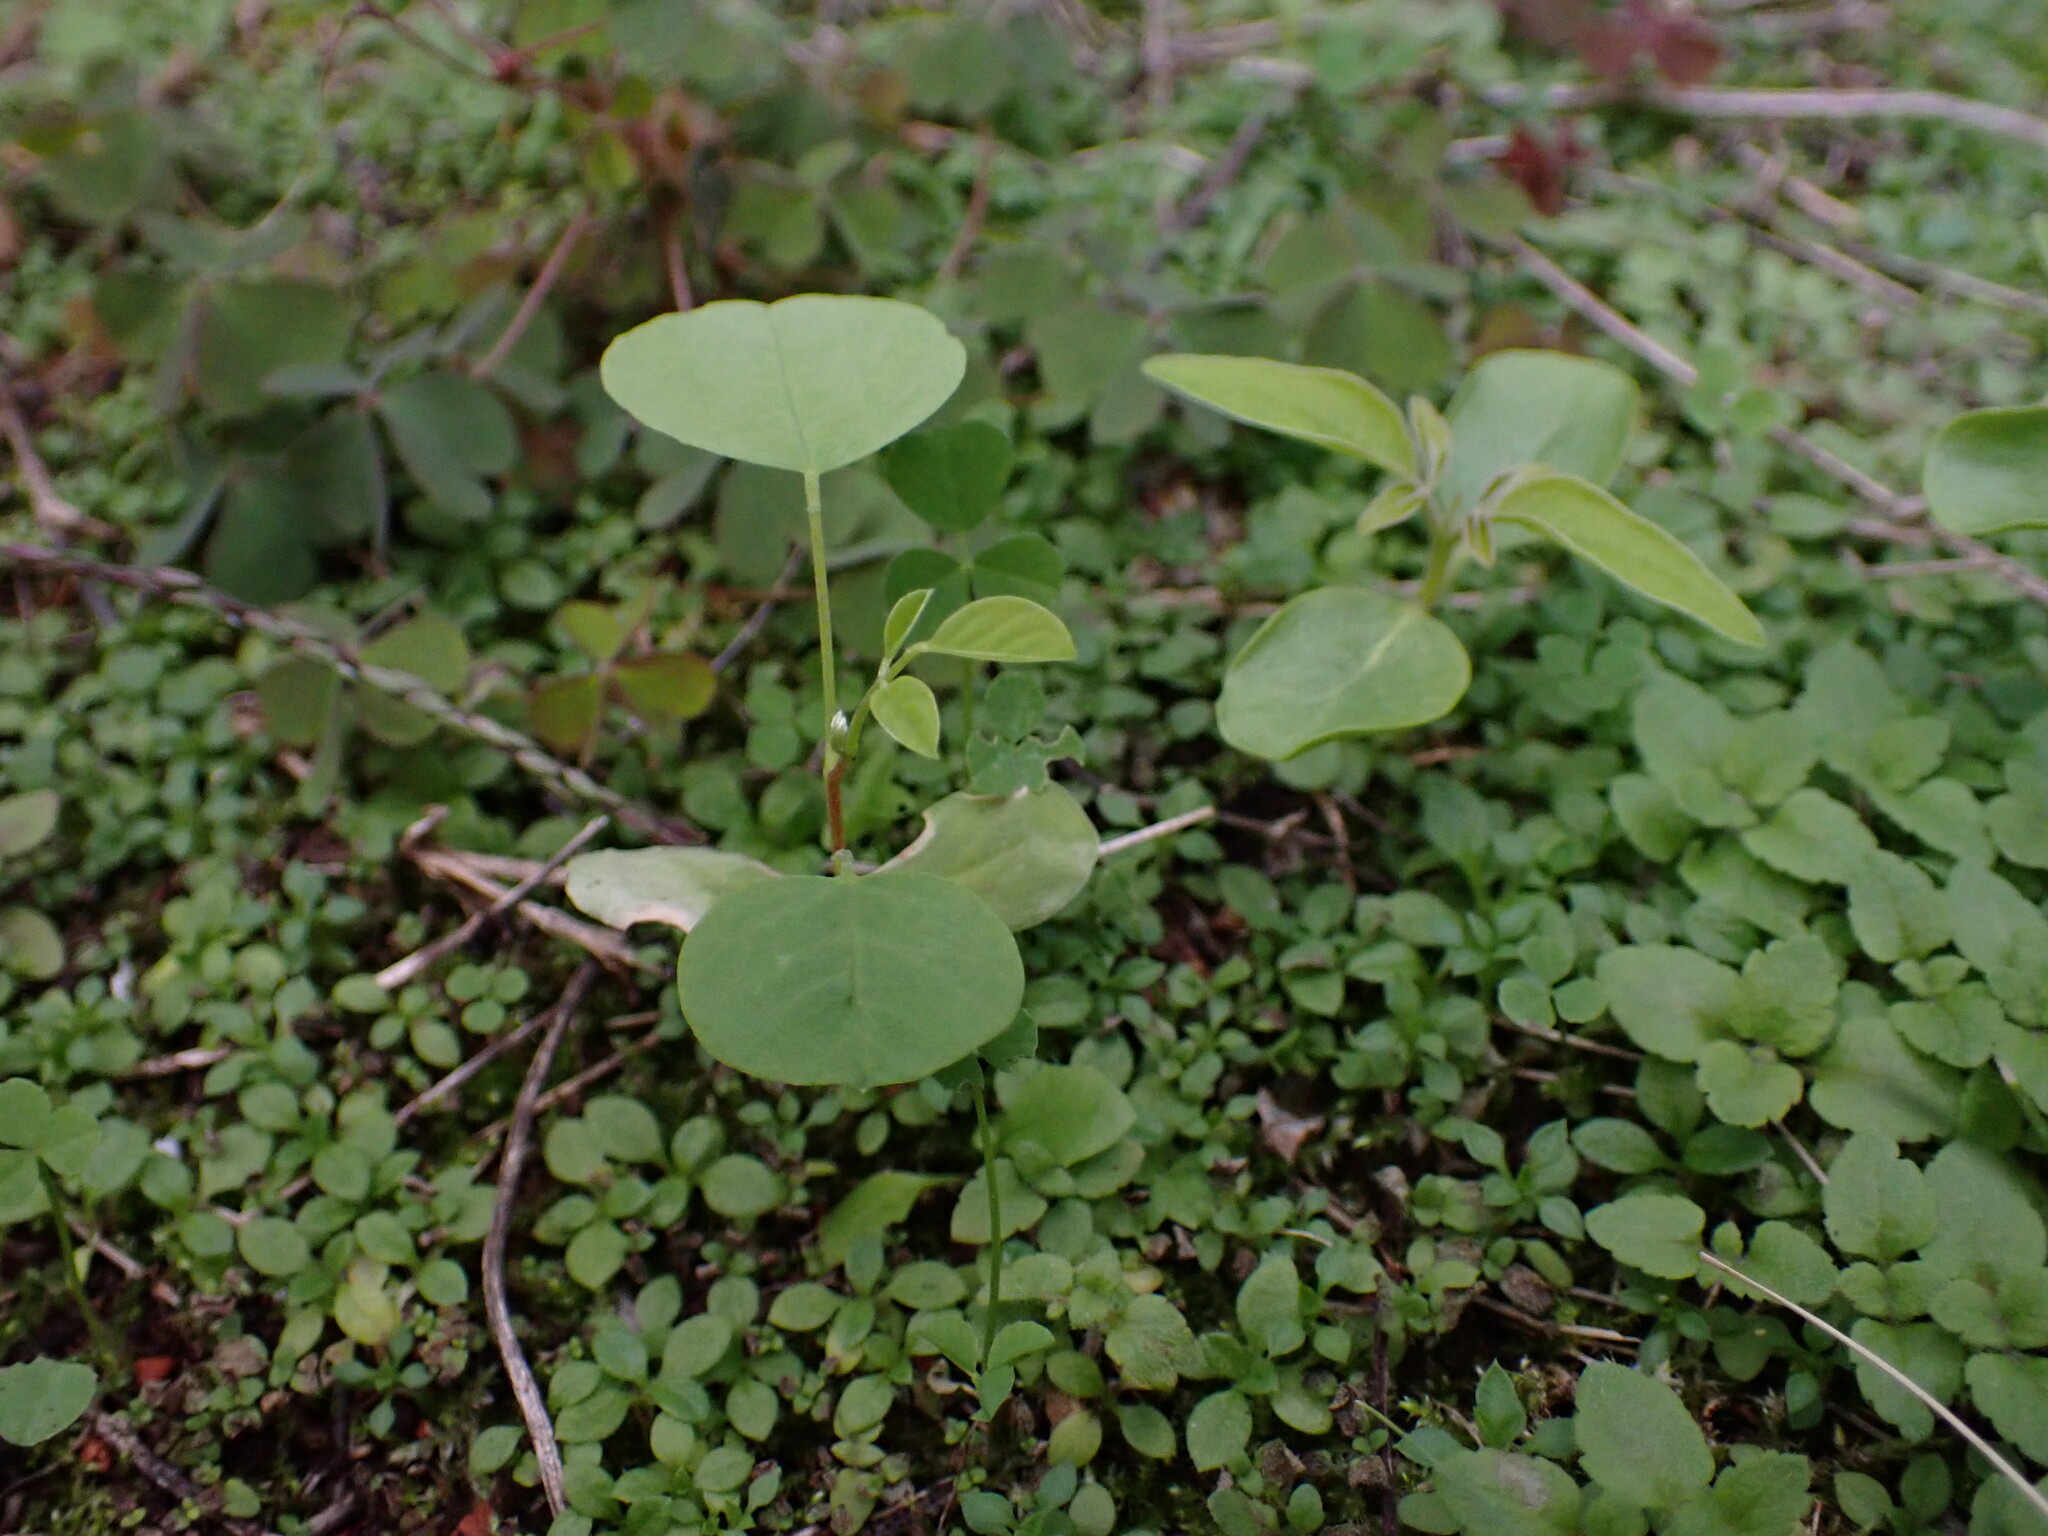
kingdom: Plantae
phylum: Tracheophyta
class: Magnoliopsida
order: Fabales
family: Fabaceae
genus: Robinia
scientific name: Robinia pseudoacacia
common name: Black locust
